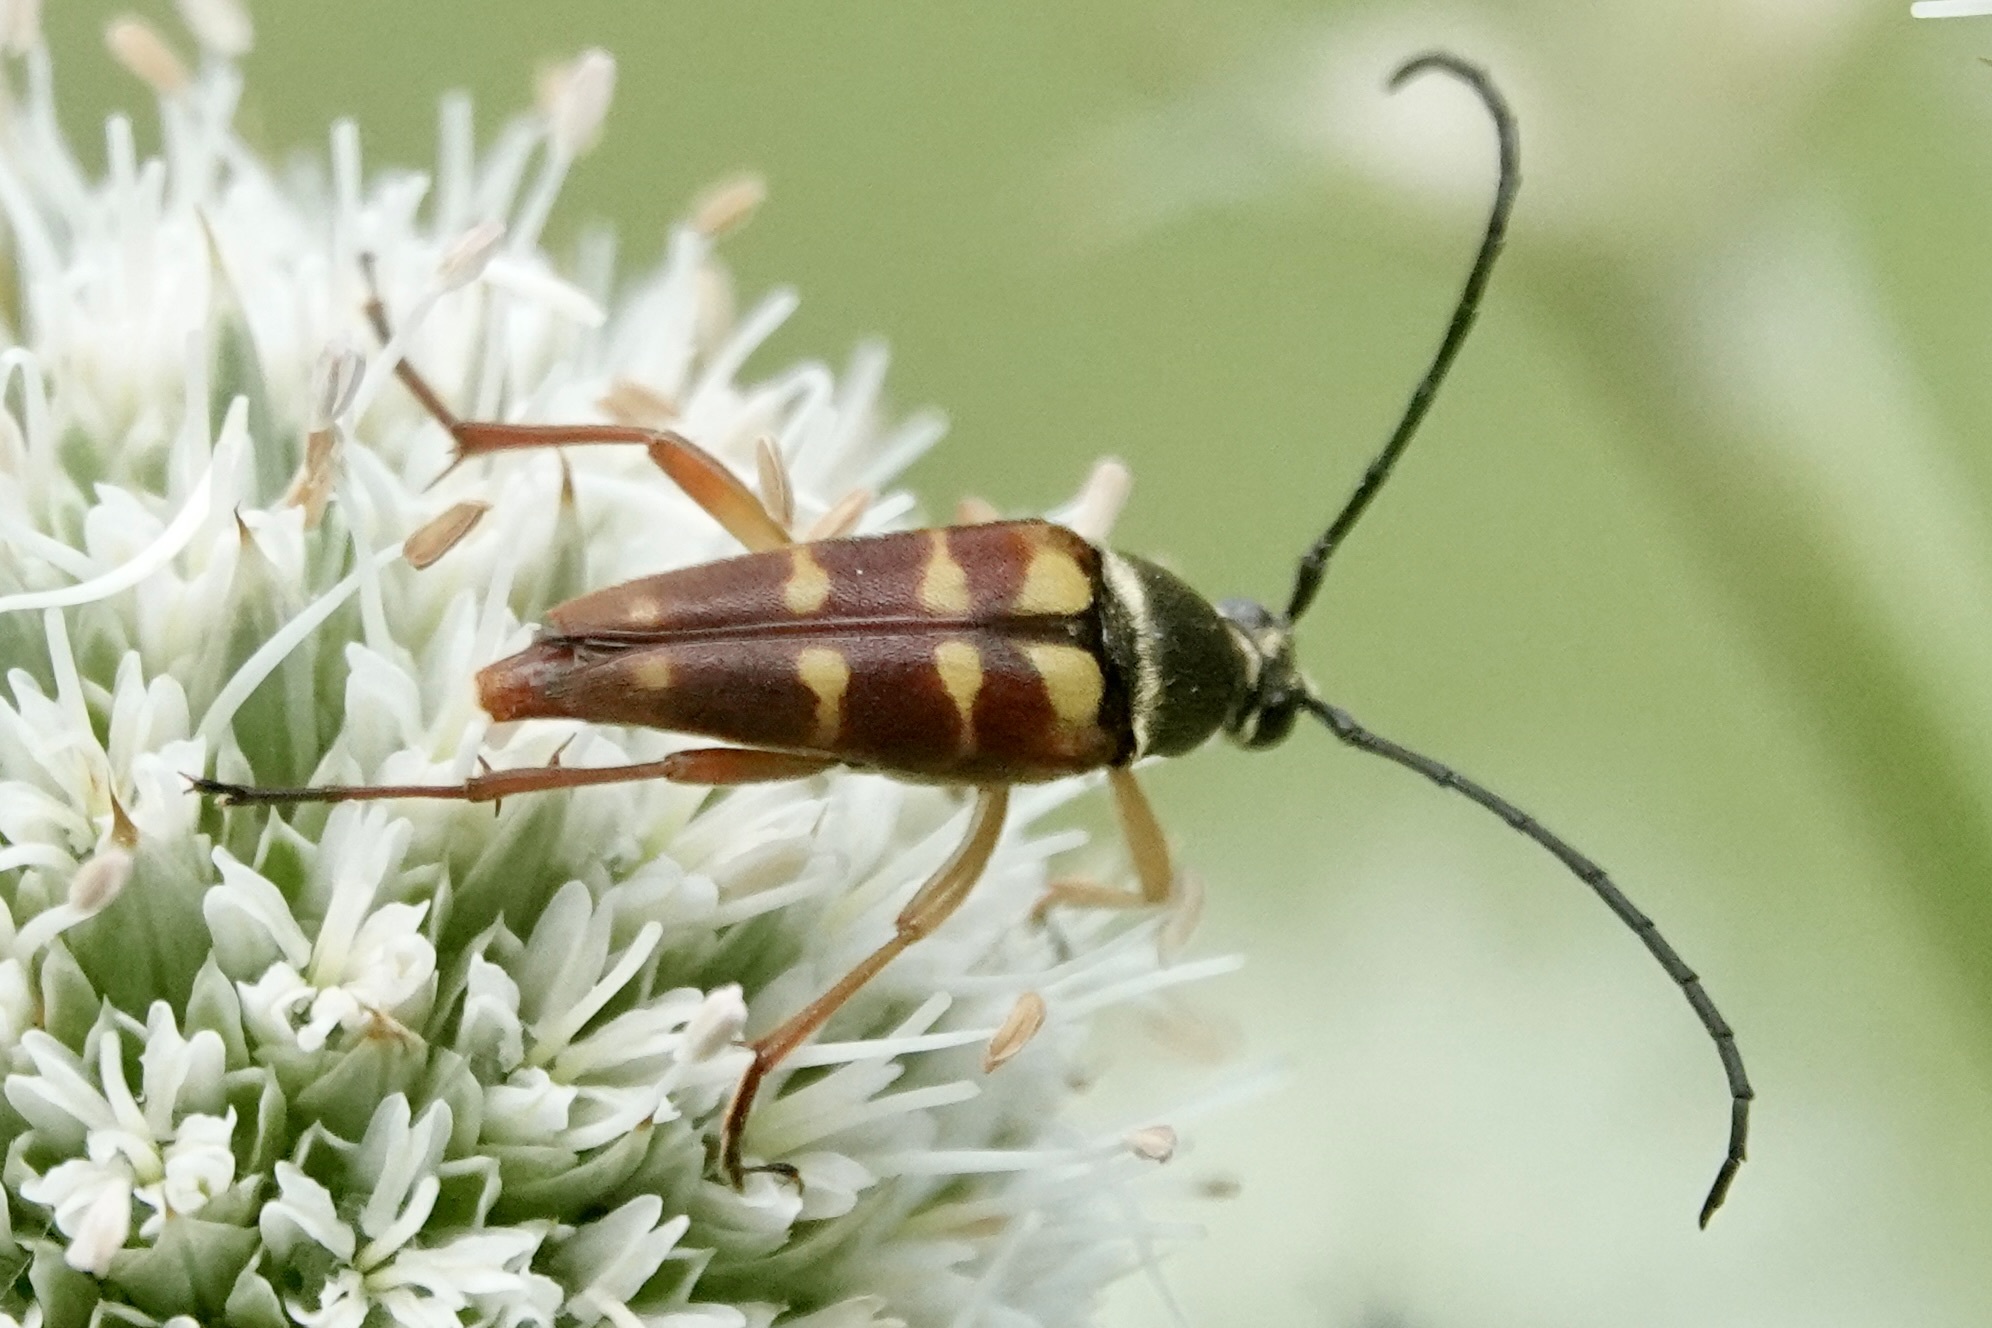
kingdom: Animalia
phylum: Arthropoda
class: Insecta
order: Coleoptera
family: Cerambycidae
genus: Typocerus
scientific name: Typocerus velutinus
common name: Banded longhorn beetle
